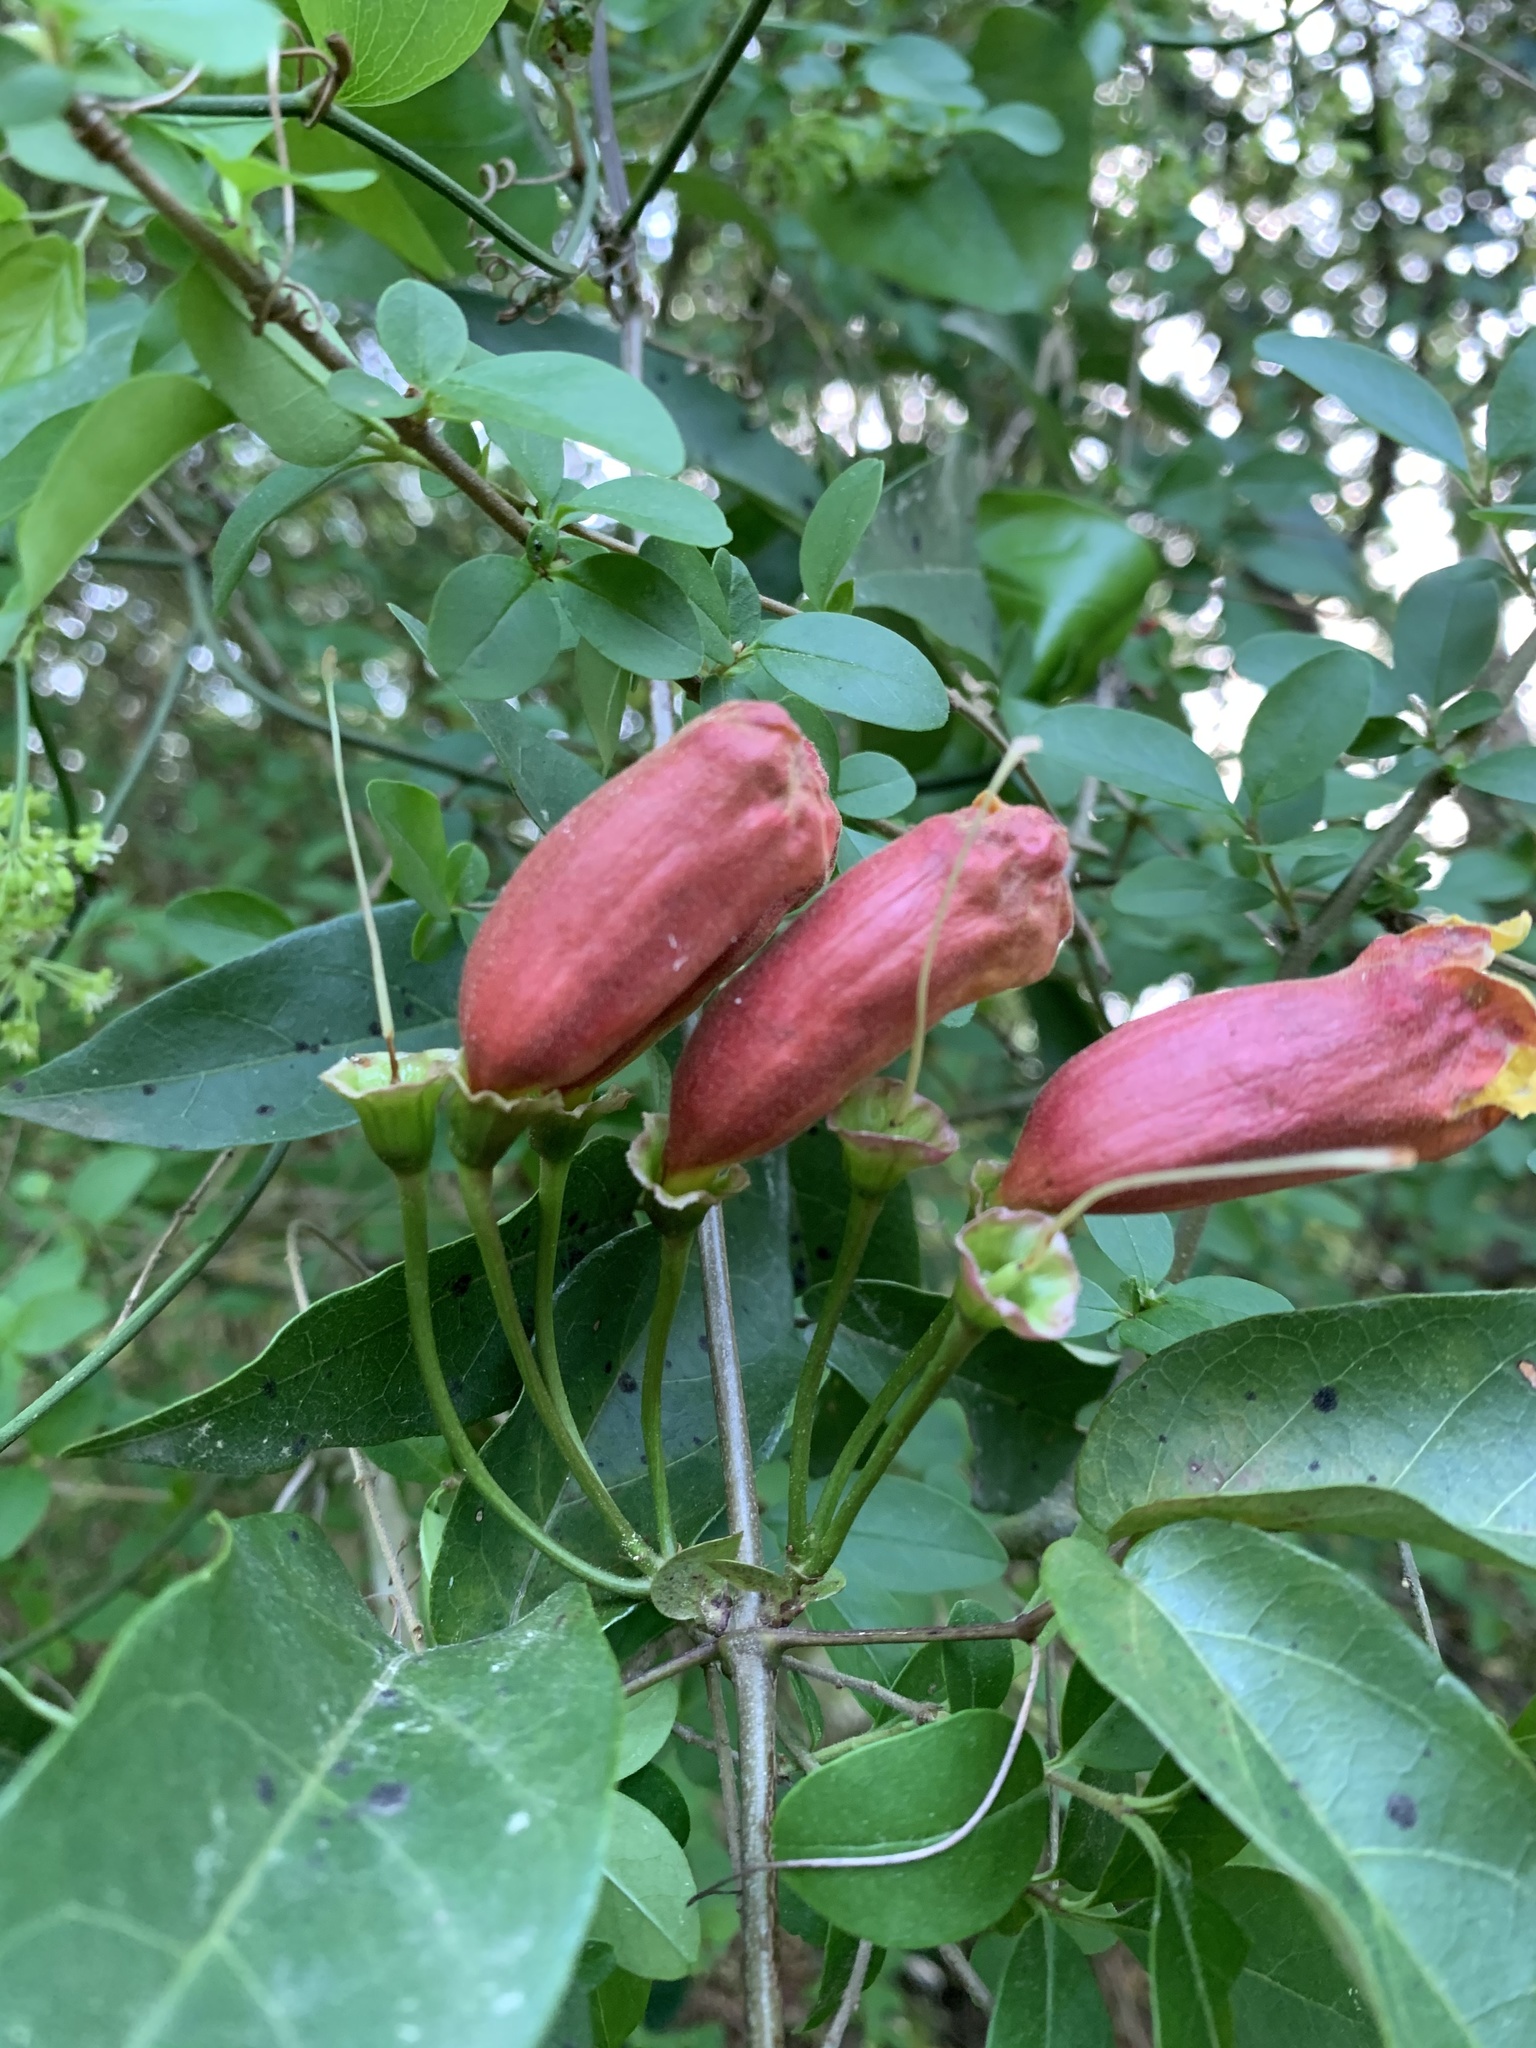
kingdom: Plantae
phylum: Tracheophyta
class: Magnoliopsida
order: Lamiales
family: Bignoniaceae
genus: Bignonia
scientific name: Bignonia capreolata
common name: Crossvine
